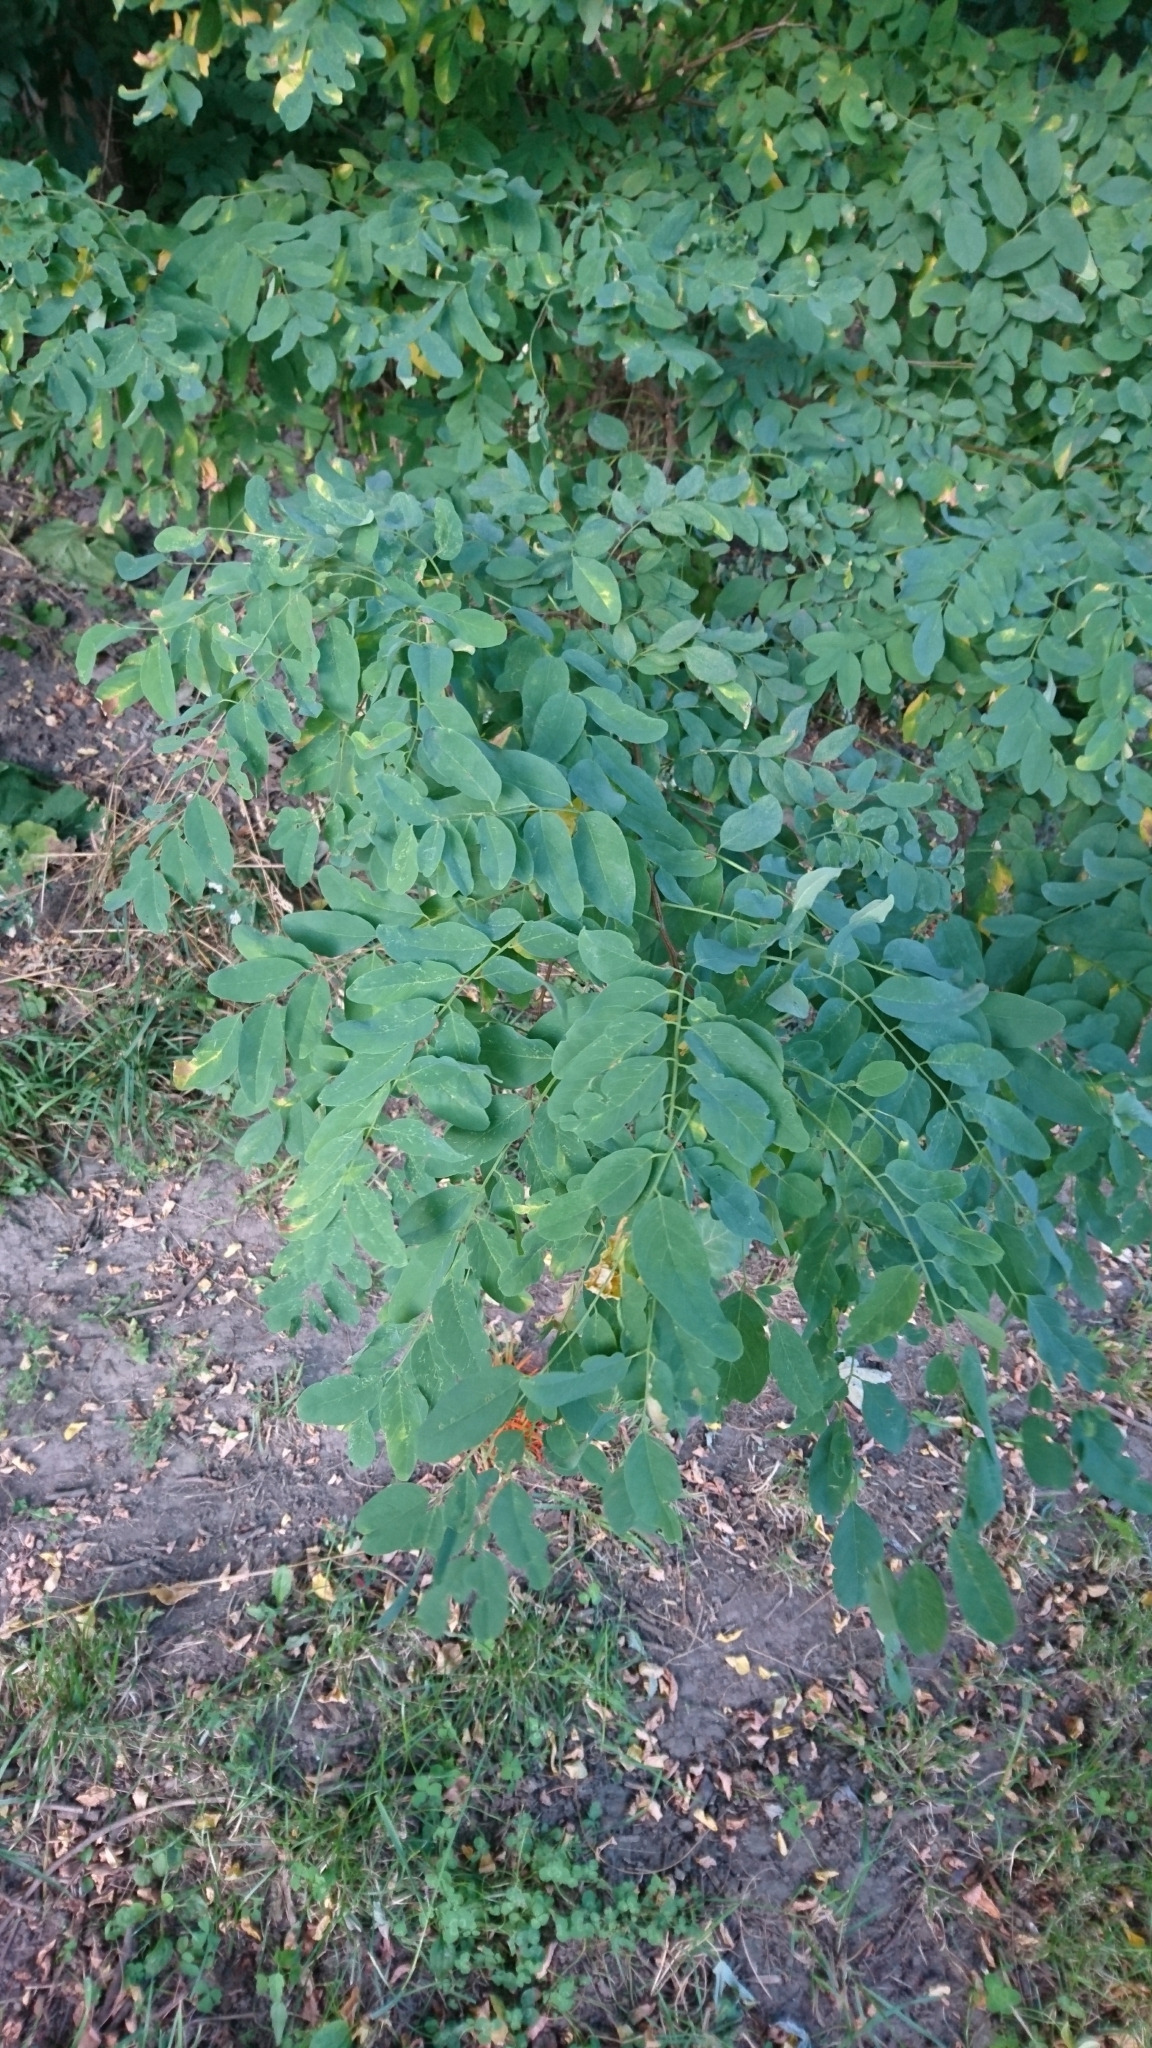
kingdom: Plantae
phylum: Tracheophyta
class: Magnoliopsida
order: Fabales
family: Fabaceae
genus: Robinia
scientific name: Robinia pseudoacacia
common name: Black locust
